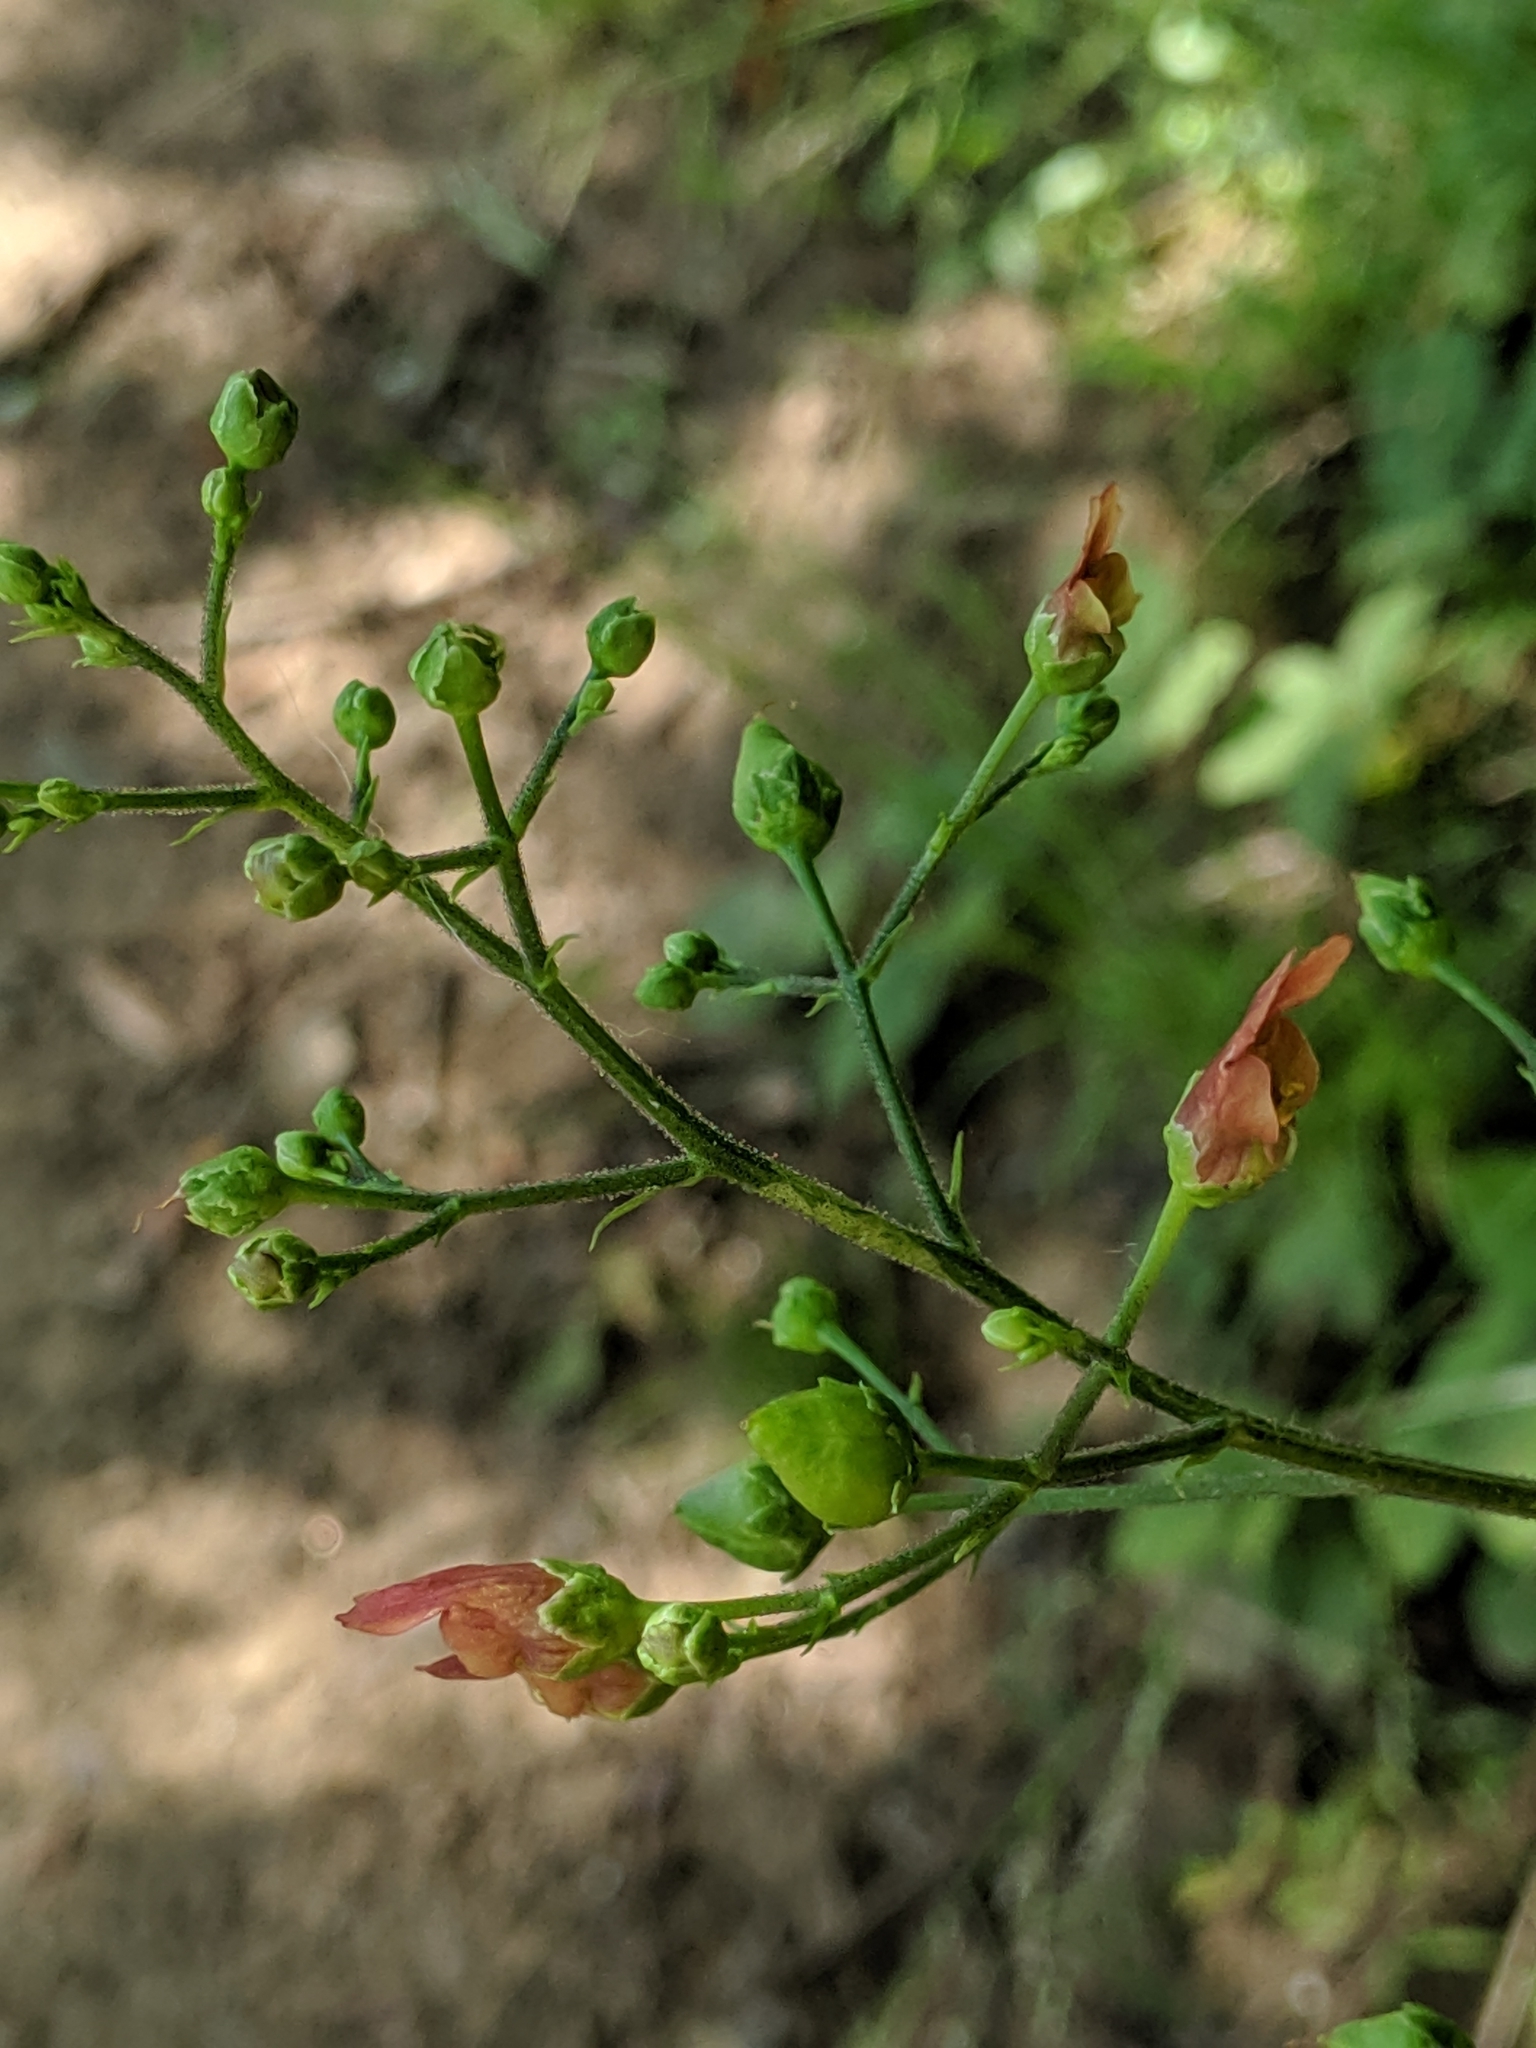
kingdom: Plantae
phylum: Tracheophyta
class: Magnoliopsida
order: Lamiales
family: Scrophulariaceae
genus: Scrophularia
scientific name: Scrophularia californica
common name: California figwort
